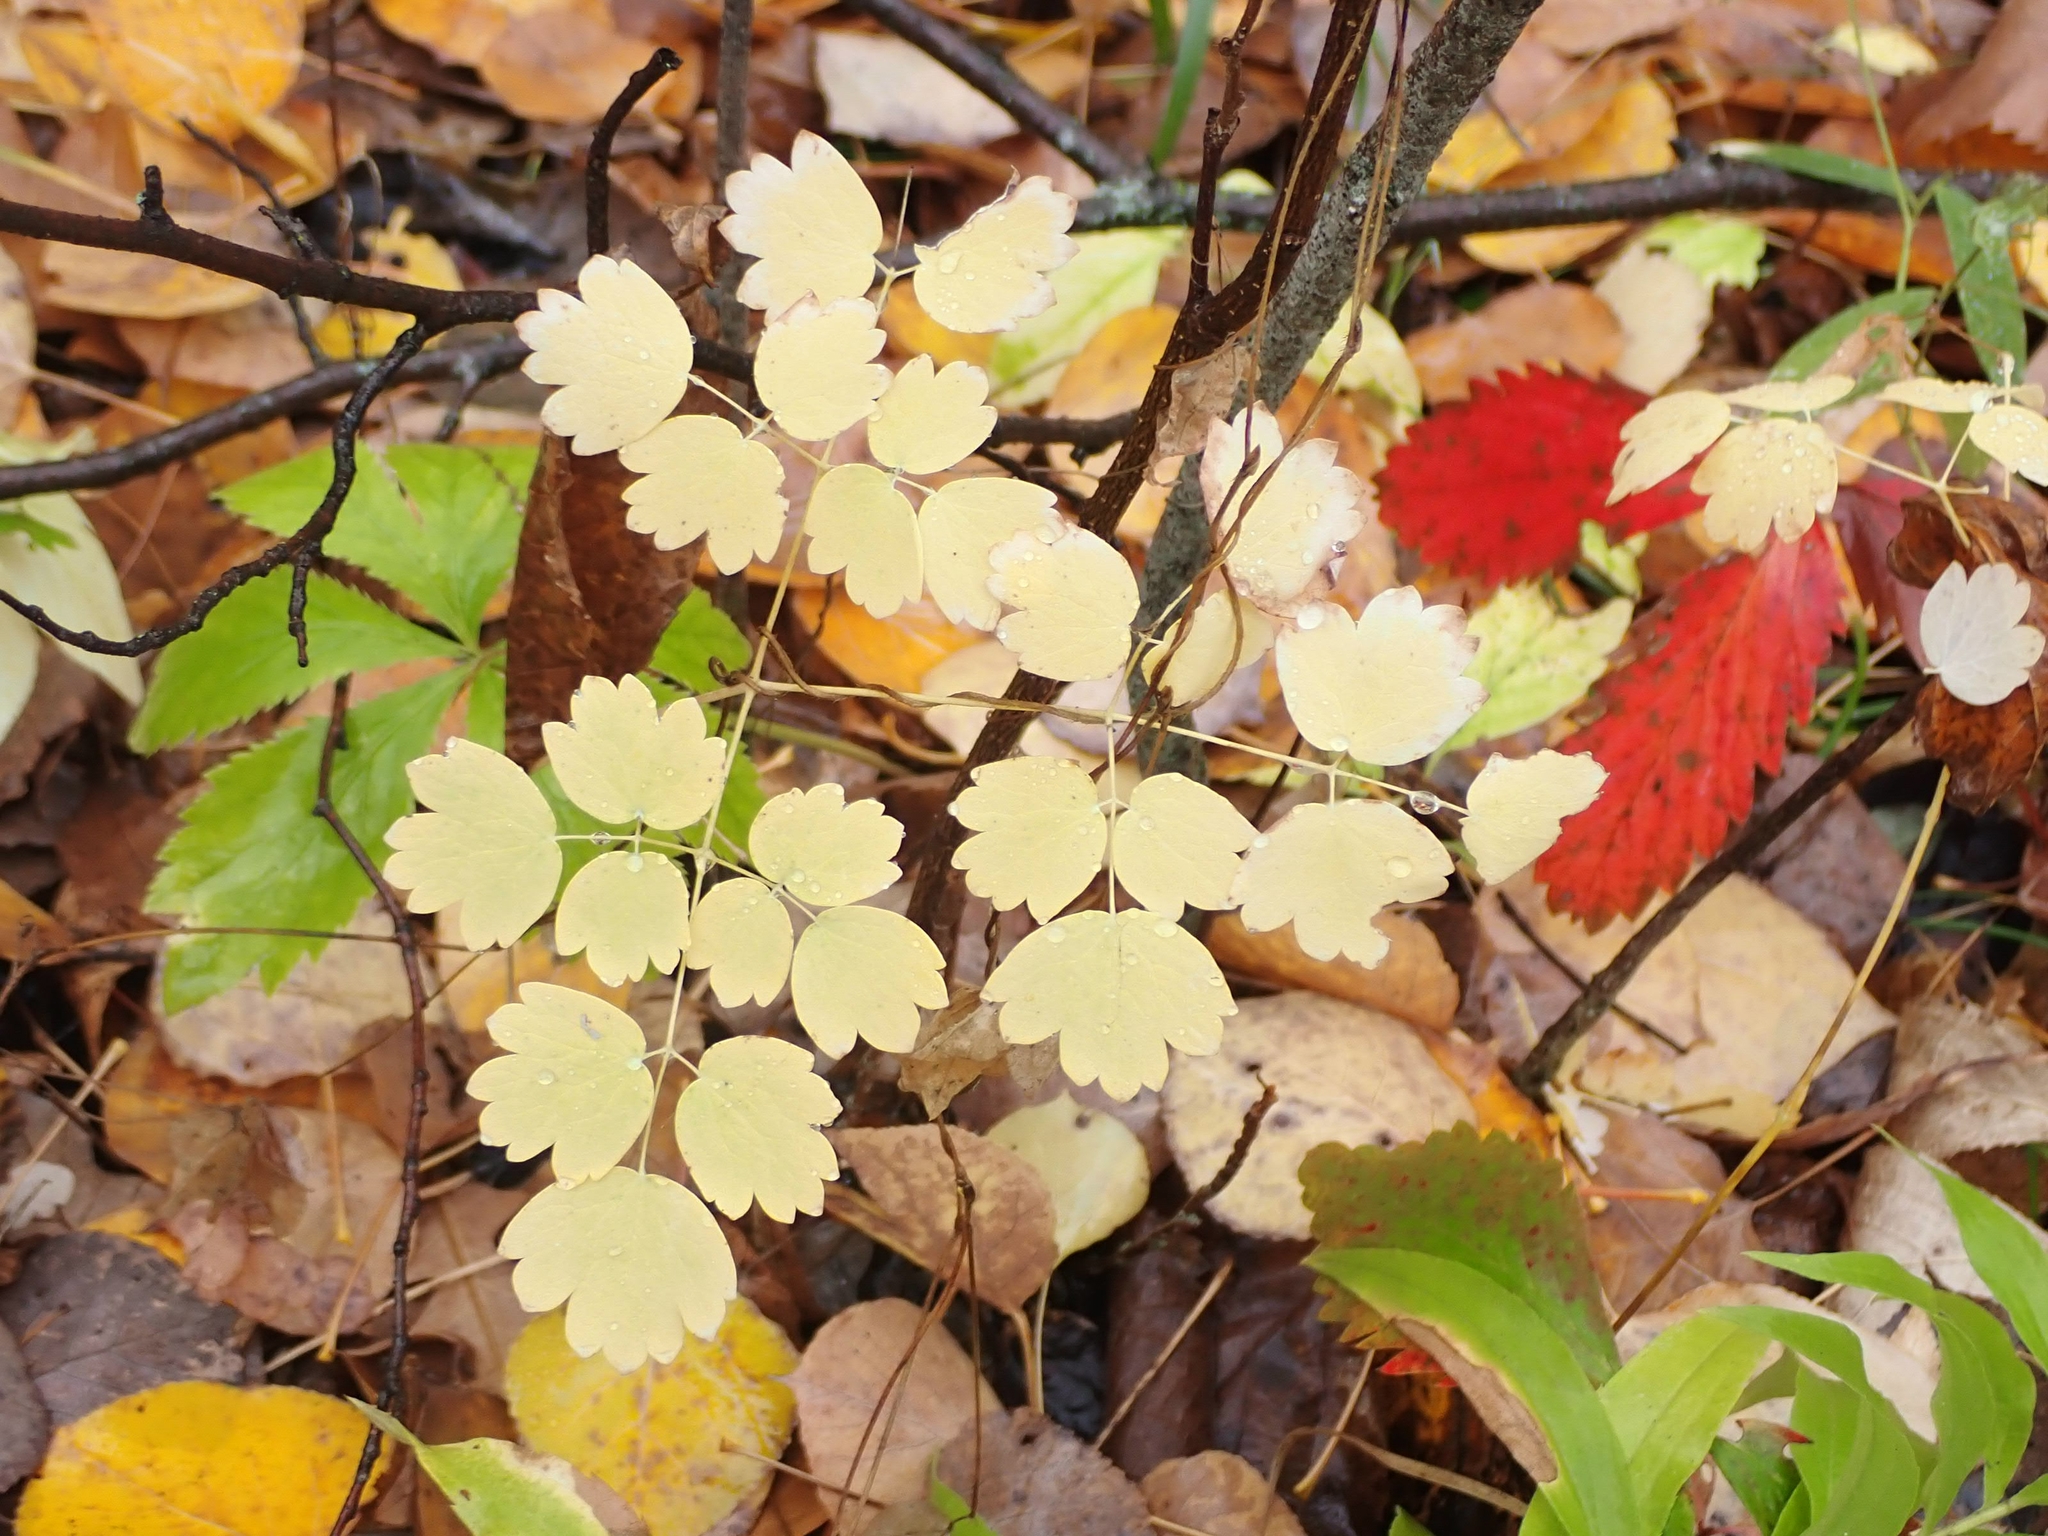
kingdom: Plantae
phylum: Tracheophyta
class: Magnoliopsida
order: Ranunculales
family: Ranunculaceae
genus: Thalictrum
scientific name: Thalictrum venulosum
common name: Early meadow-rue
